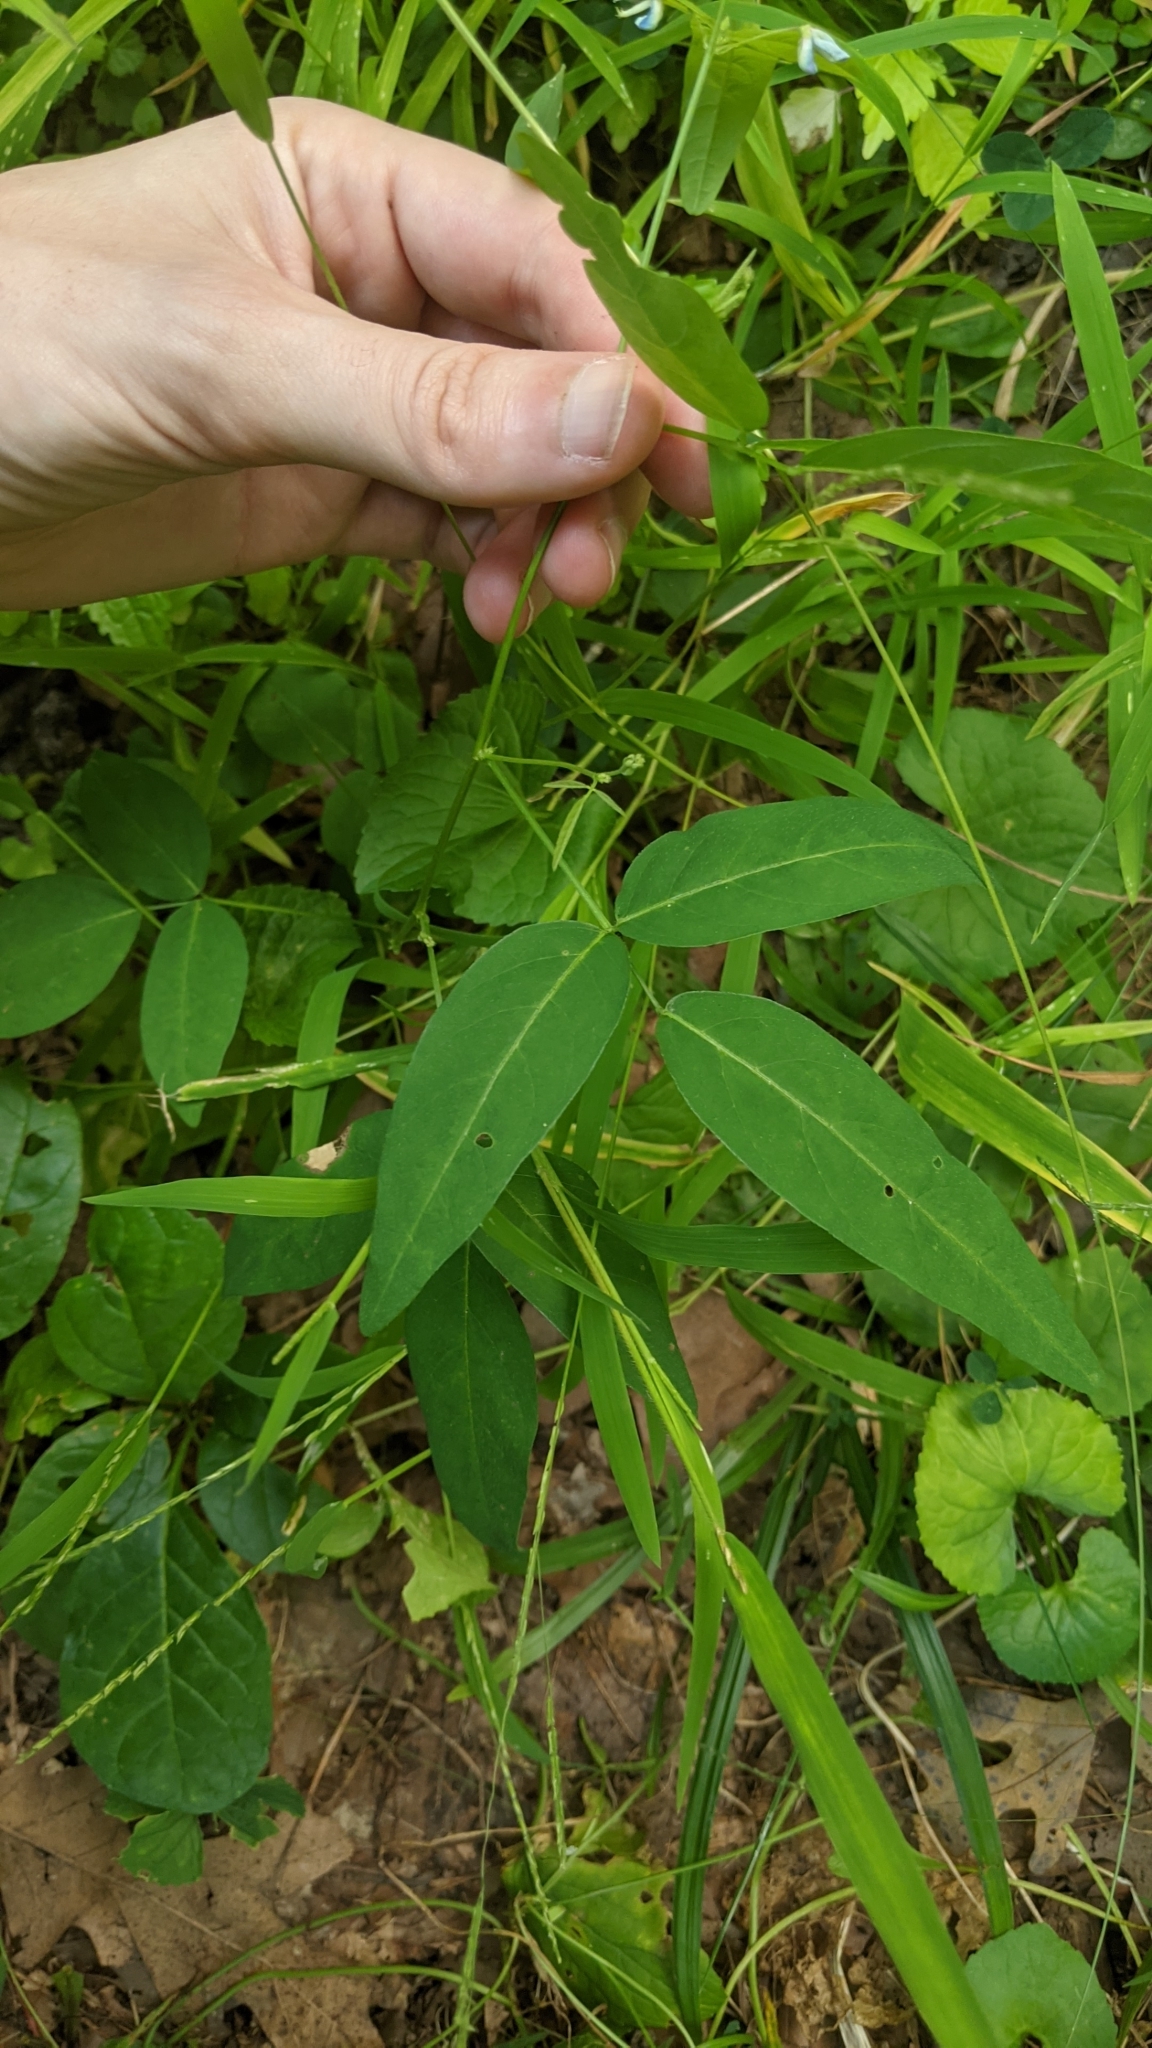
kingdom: Plantae
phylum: Tracheophyta
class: Magnoliopsida
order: Fabales
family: Fabaceae
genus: Desmodium
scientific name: Desmodium paniculatum
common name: Panicled tick-clover
